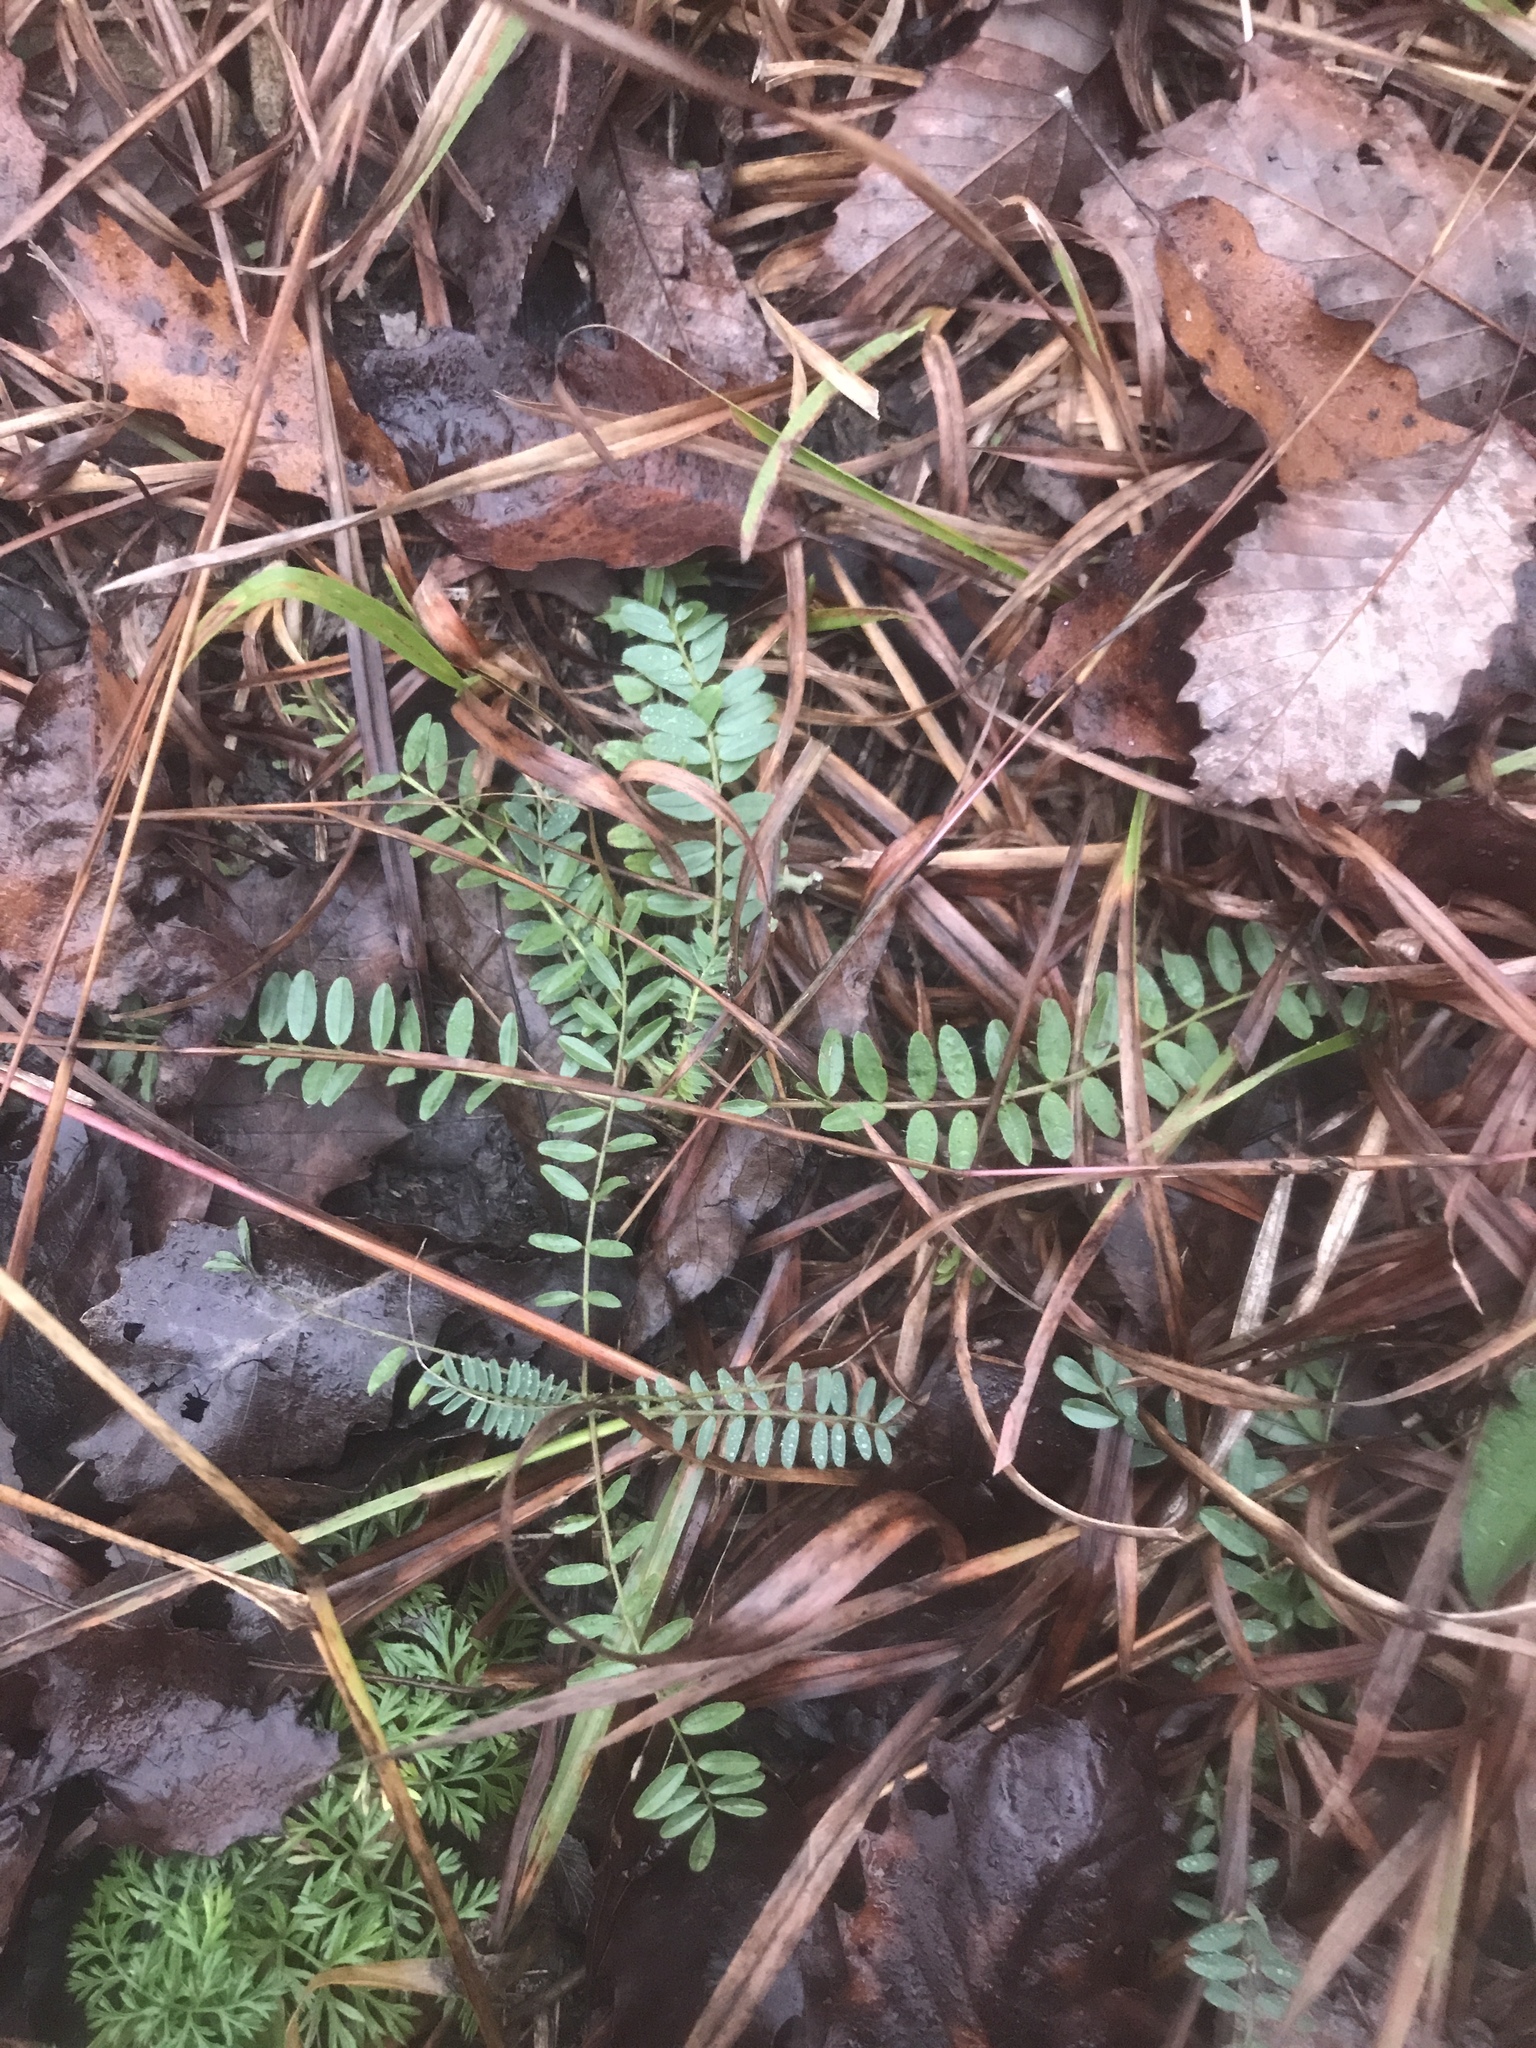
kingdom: Plantae
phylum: Tracheophyta
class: Magnoliopsida
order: Fabales
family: Fabaceae
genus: Astragalus
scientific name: Astragalus tennesseensis
